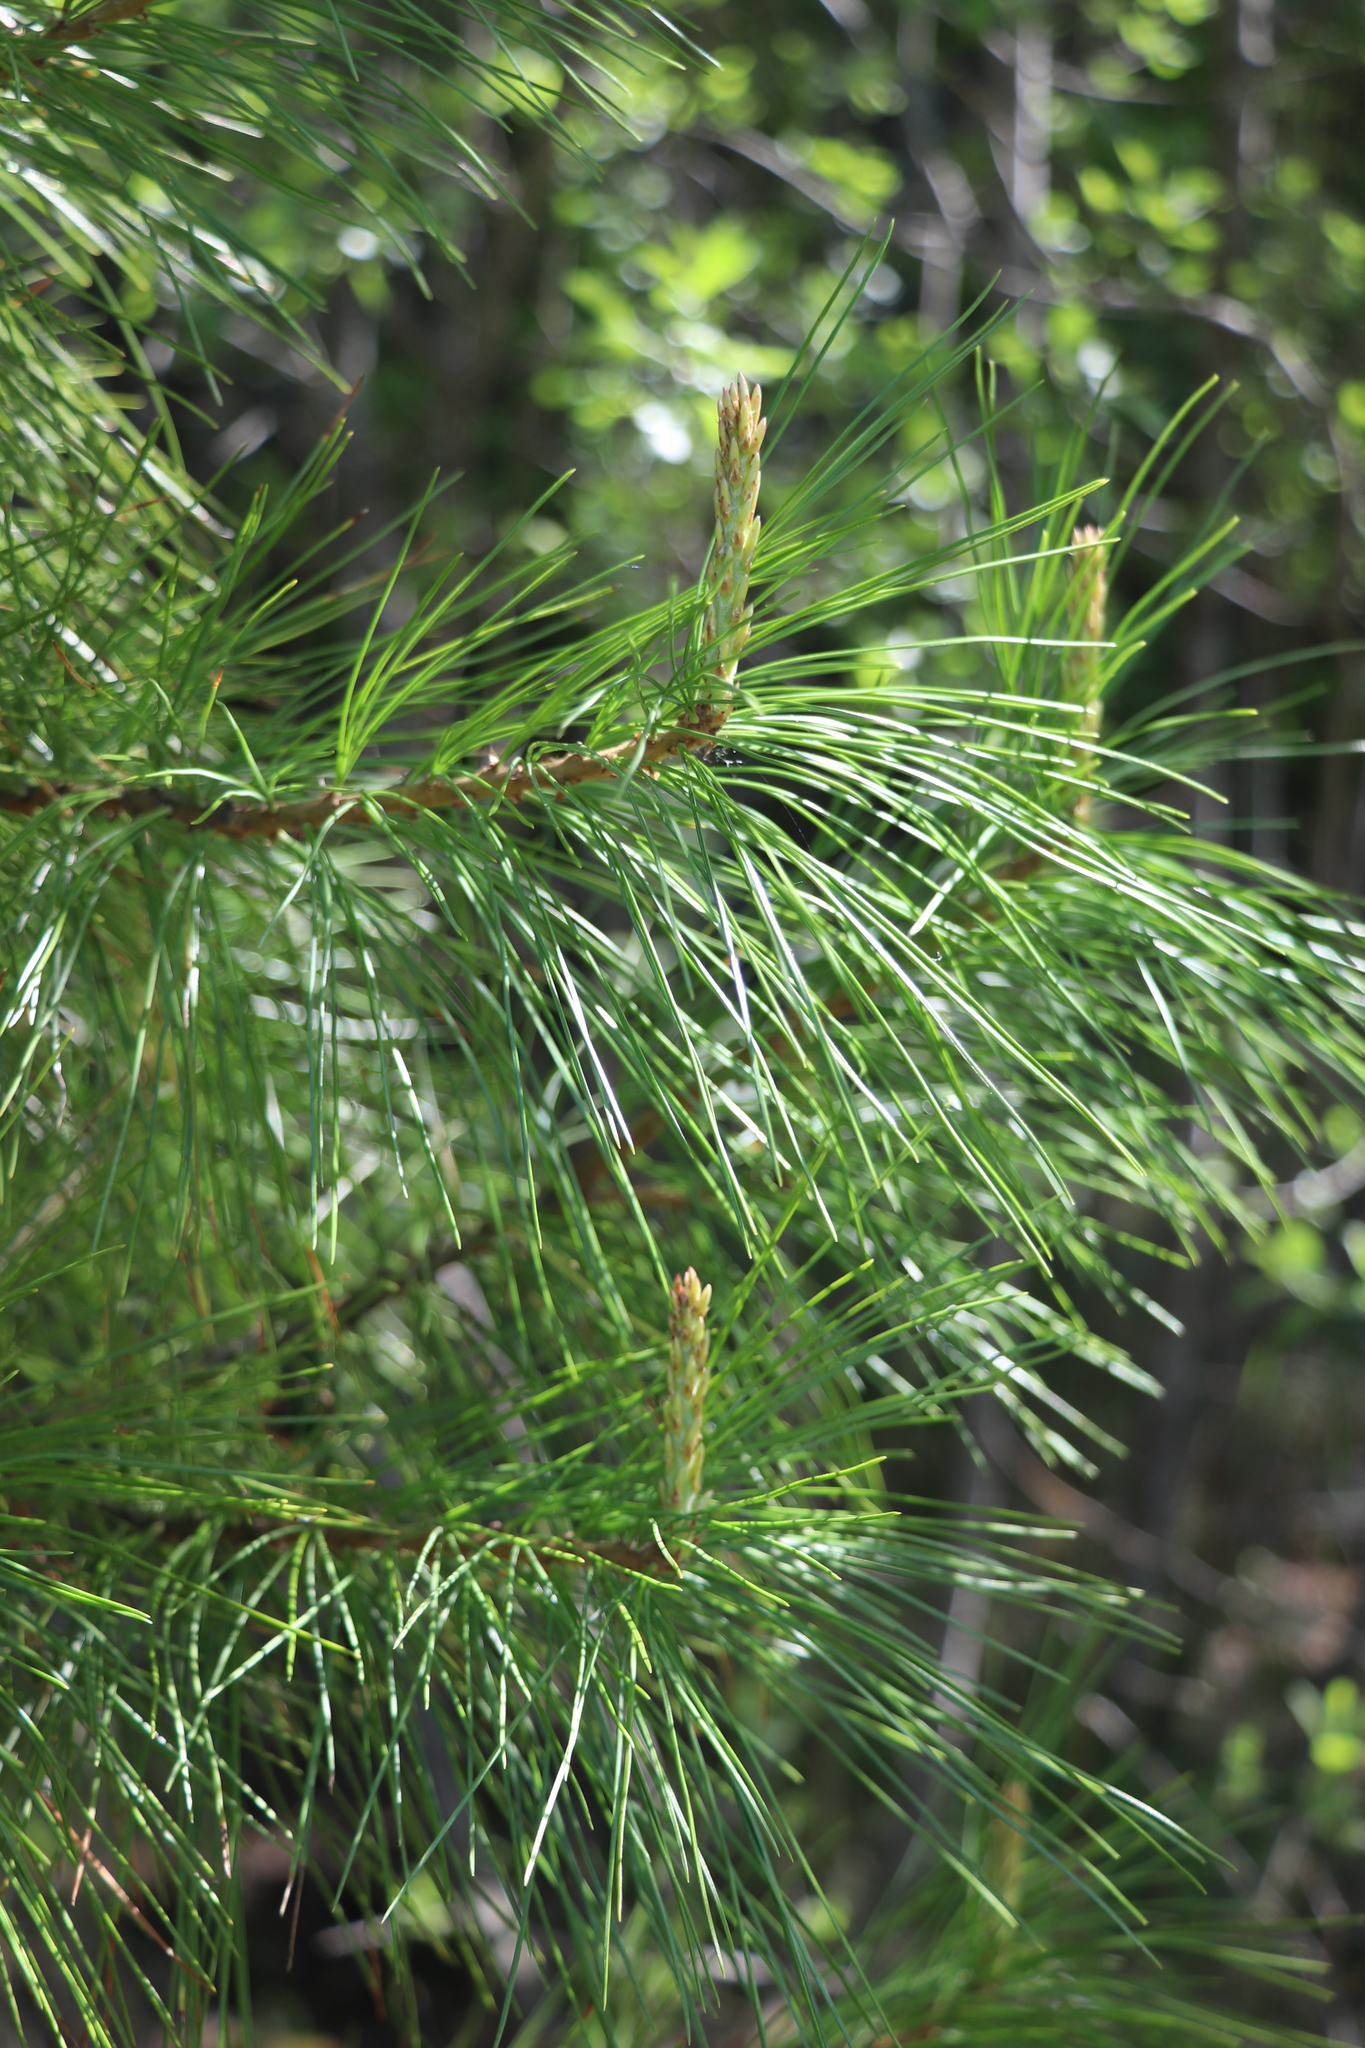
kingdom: Plantae
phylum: Tracheophyta
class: Pinopsida
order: Pinales
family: Pinaceae
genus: Pinus
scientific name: Pinus sibirica
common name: Siberian pine
